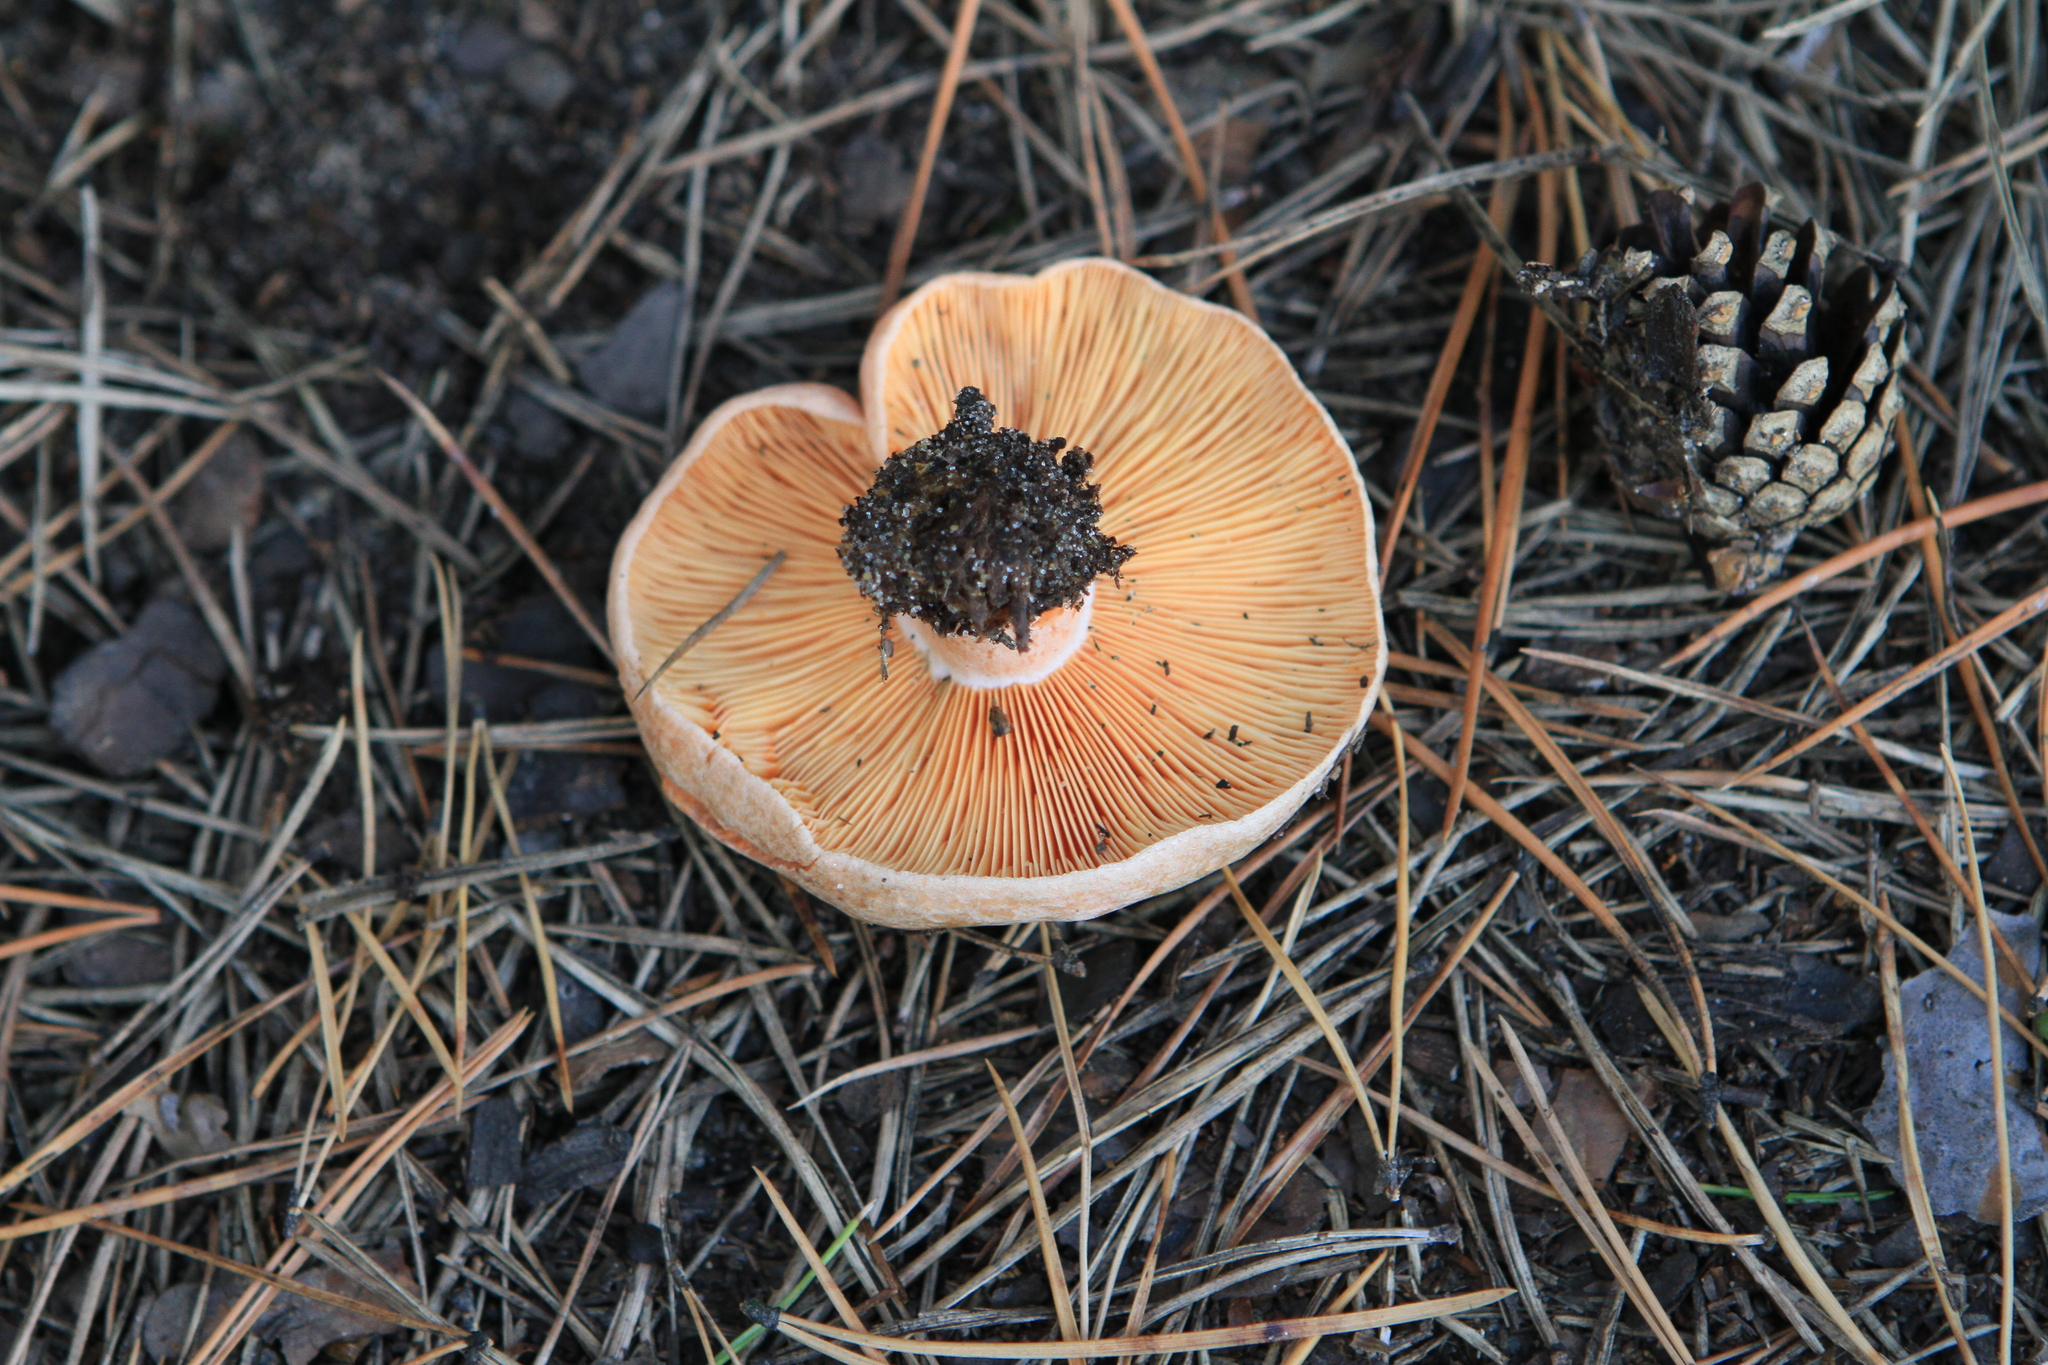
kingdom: Fungi
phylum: Basidiomycota
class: Agaricomycetes
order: Russulales
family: Russulaceae
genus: Lactarius
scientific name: Lactarius deliciosus
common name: Saffron milk-cap
